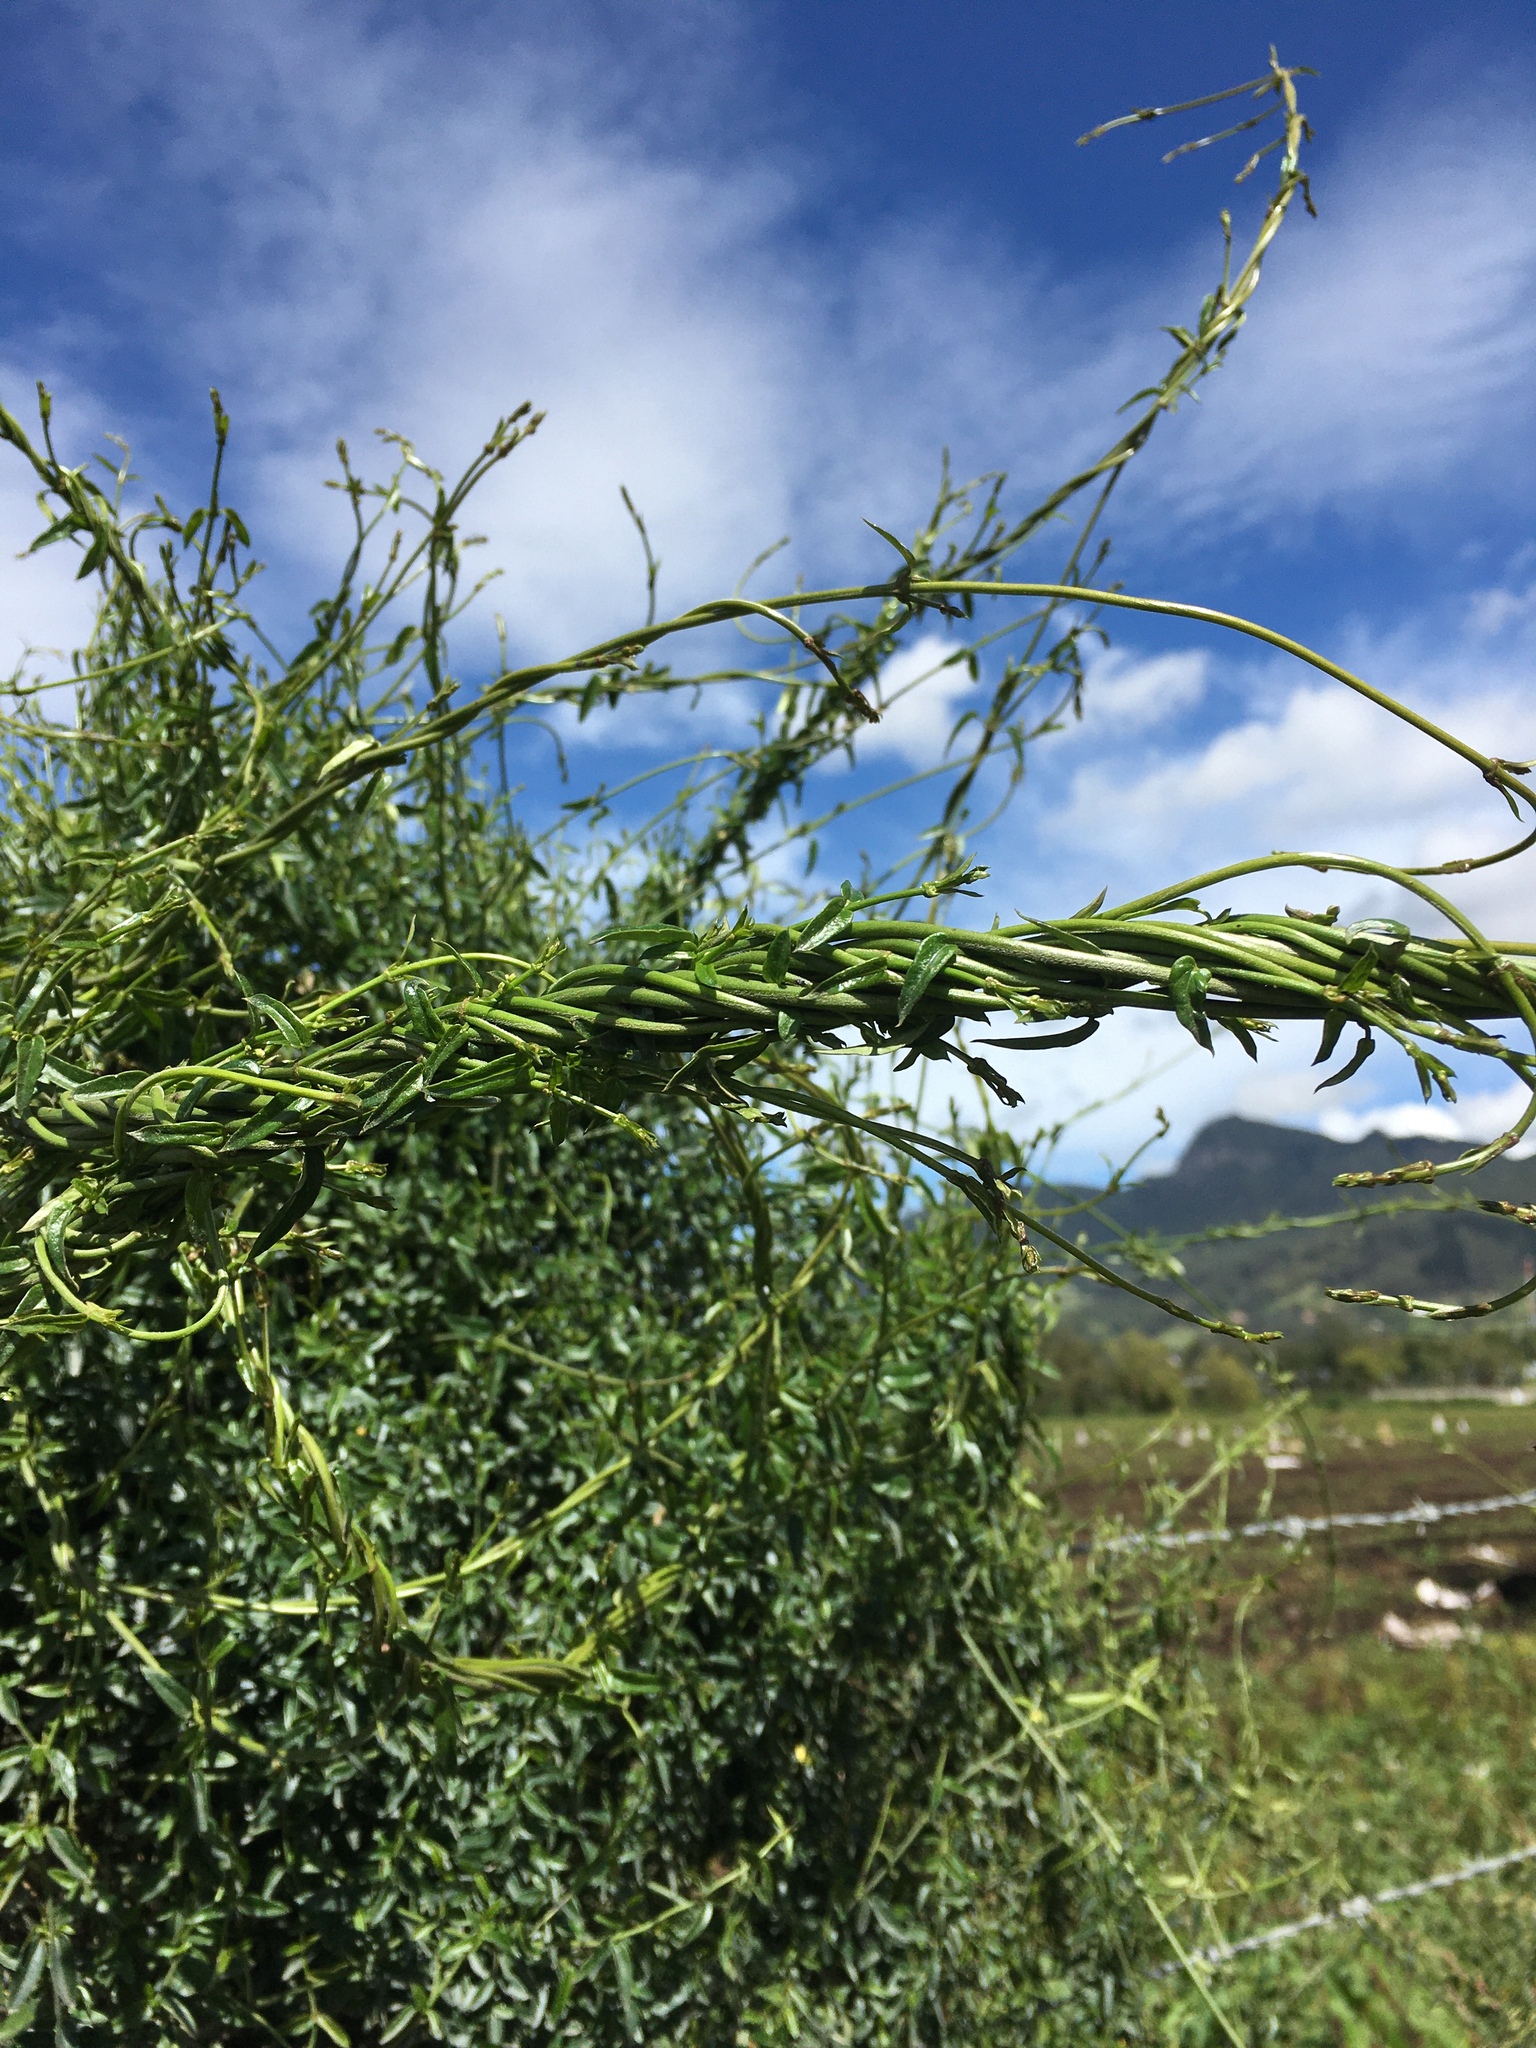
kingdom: Plantae
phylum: Tracheophyta
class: Magnoliopsida
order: Gentianales
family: Apocynaceae
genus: Scyphostelma
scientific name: Scyphostelma tenellum
